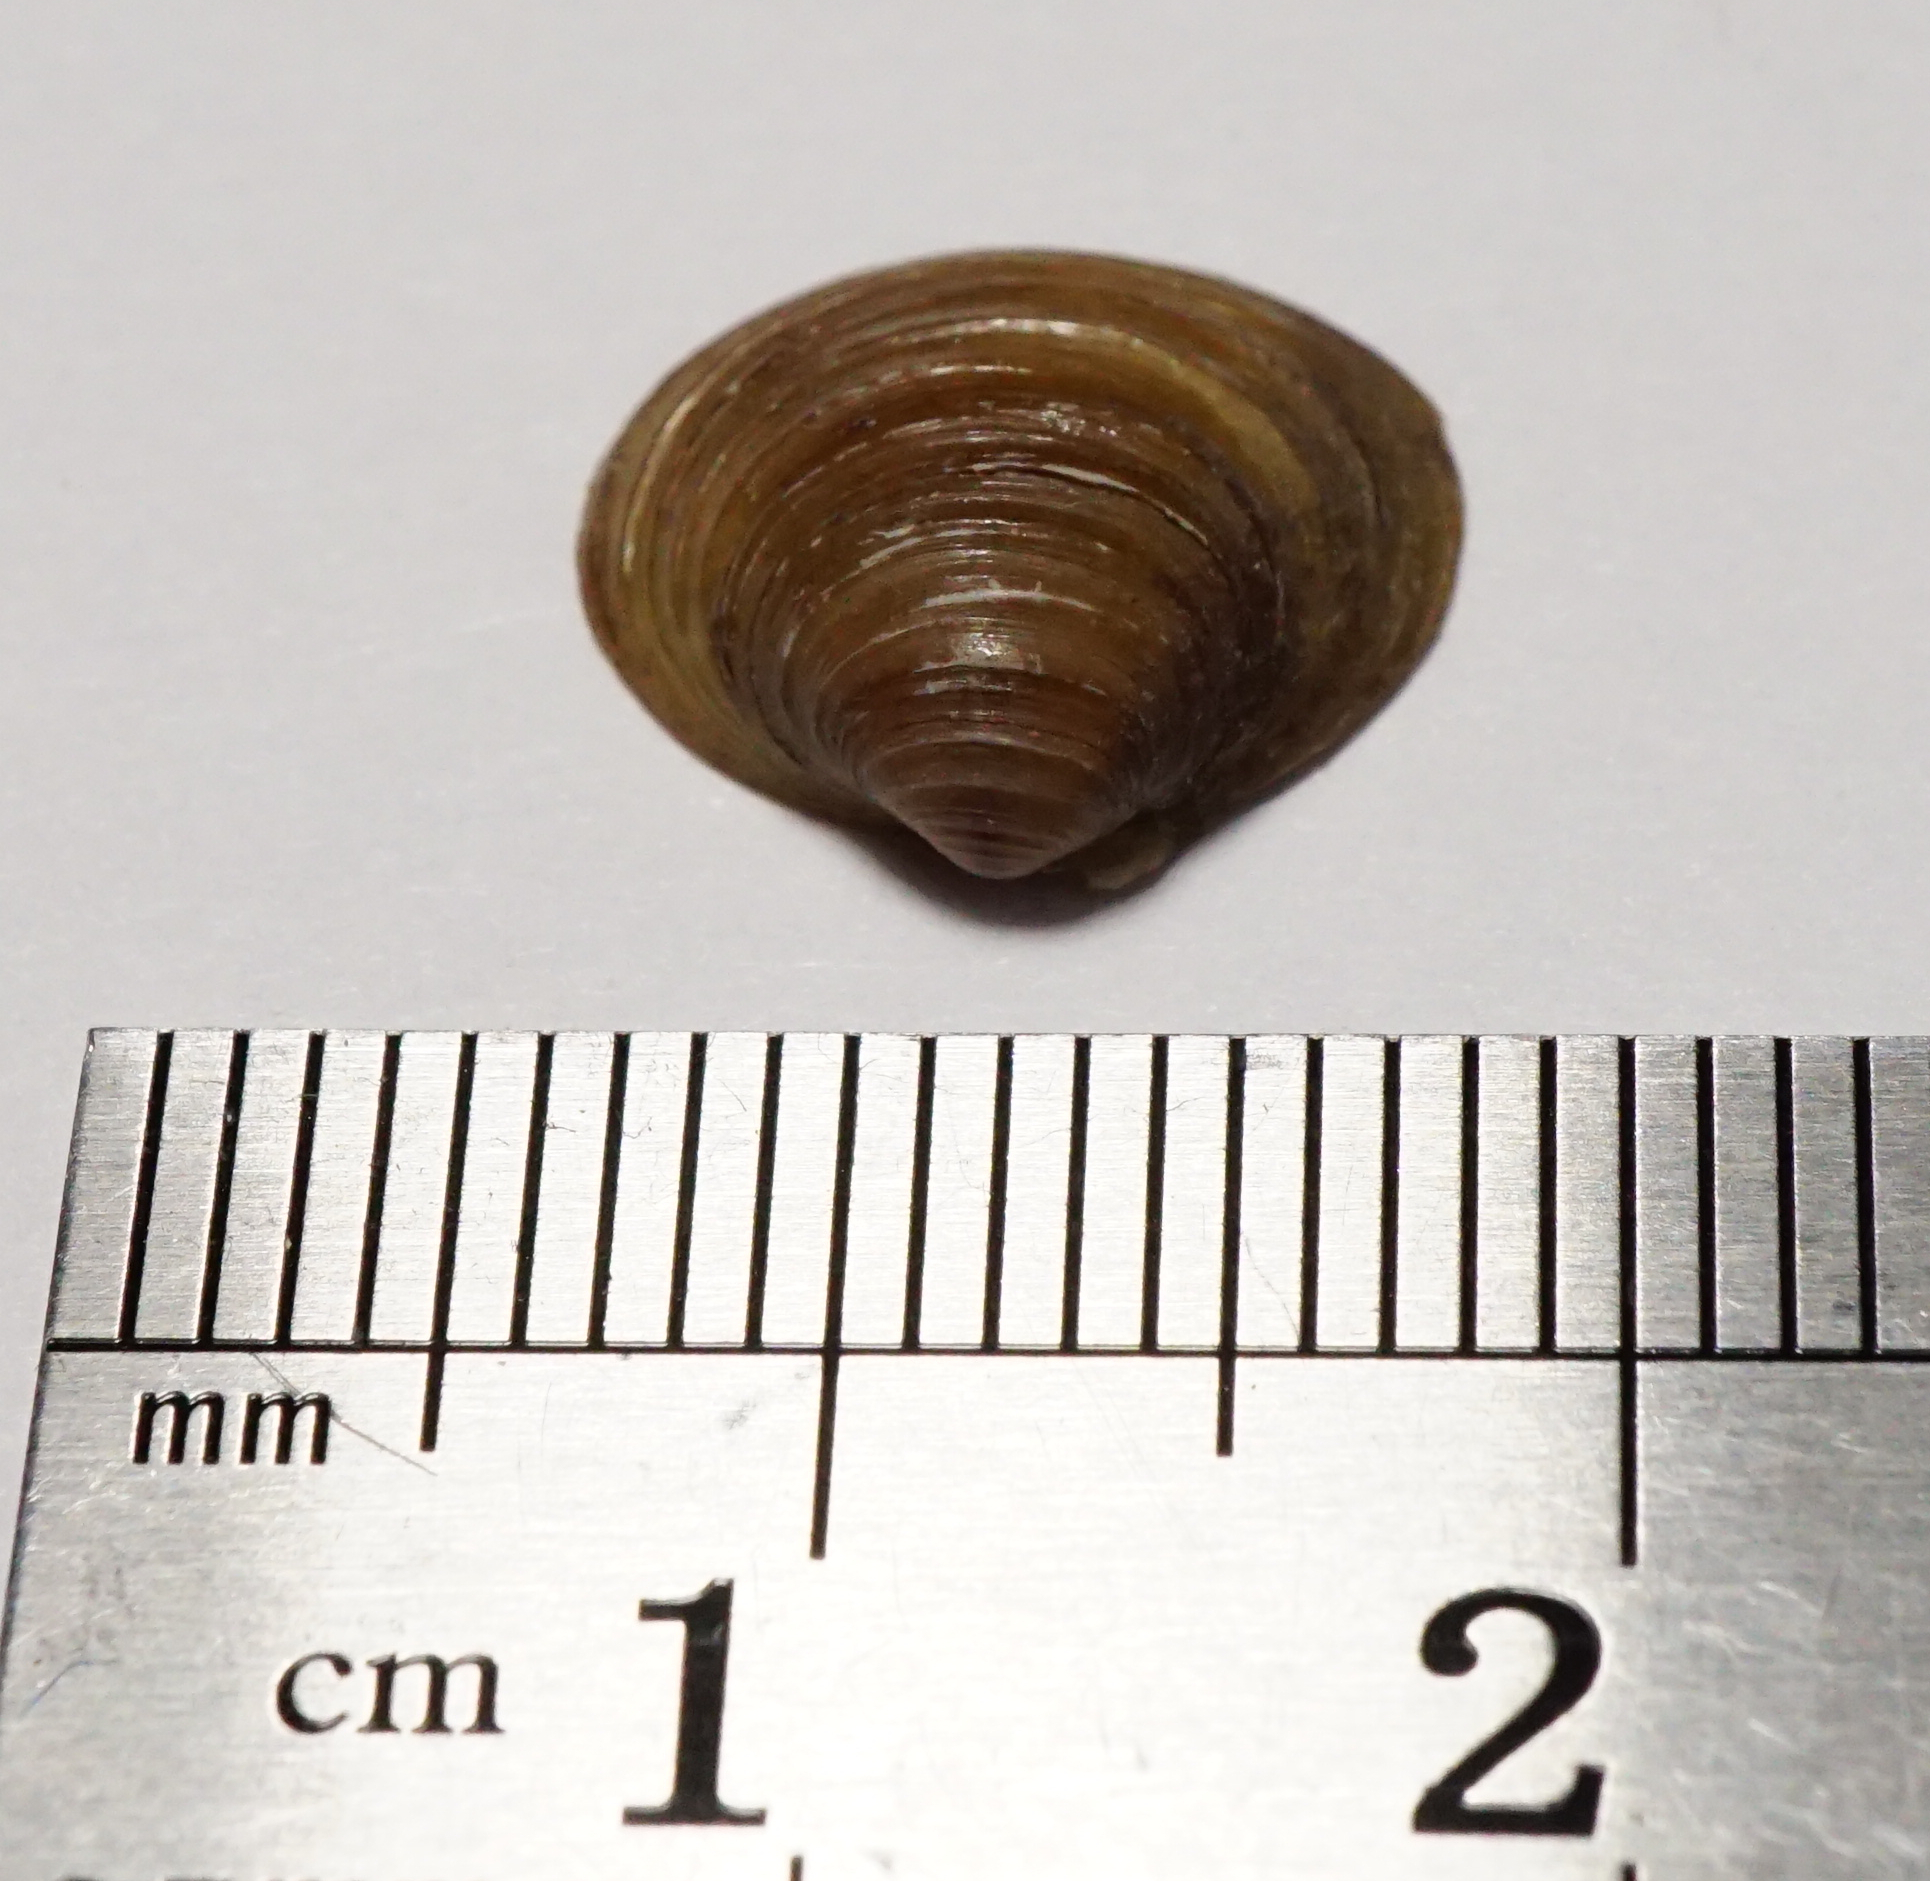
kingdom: Animalia
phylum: Mollusca
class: Bivalvia
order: Venerida
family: Cyrenidae
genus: Corbicula
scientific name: Corbicula fluminea
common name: Asian clam
